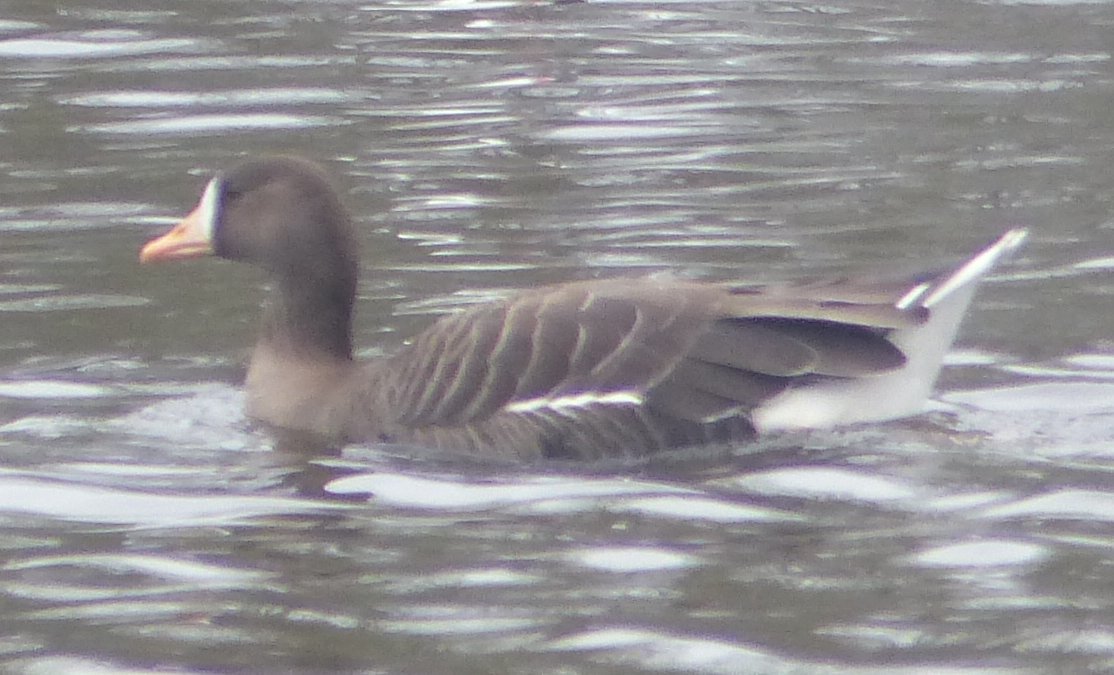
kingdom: Animalia
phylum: Chordata
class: Aves
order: Anseriformes
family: Anatidae
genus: Anser
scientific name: Anser albifrons
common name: Greater white-fronted goose
